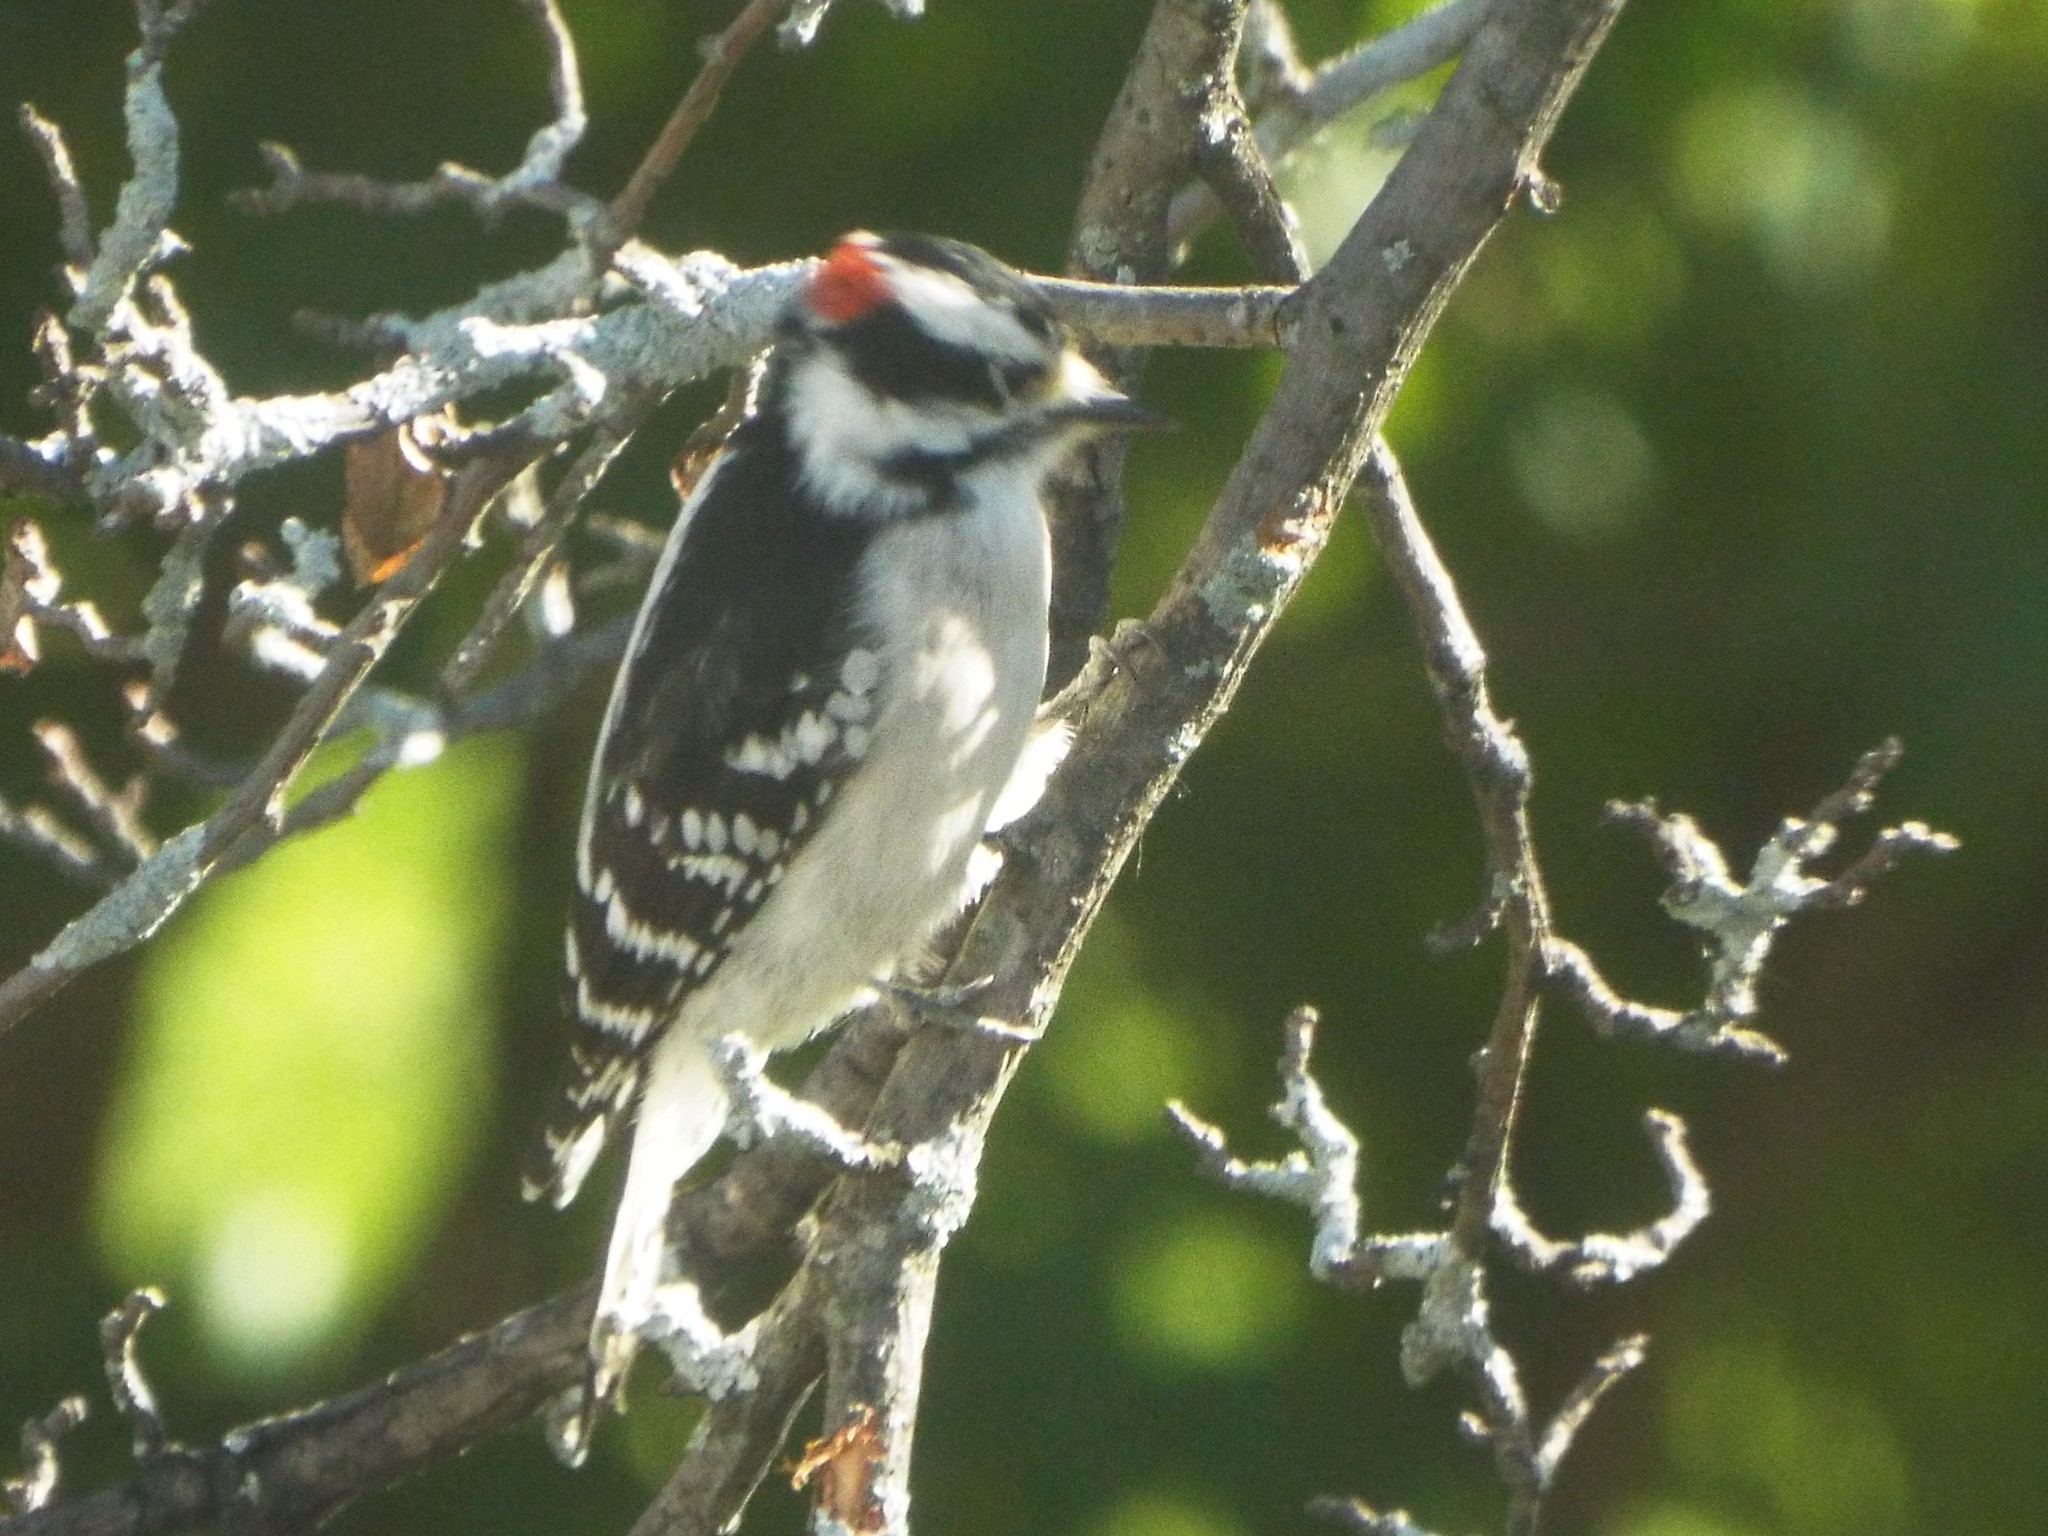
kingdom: Animalia
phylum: Chordata
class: Aves
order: Piciformes
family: Picidae
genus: Dryobates
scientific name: Dryobates pubescens
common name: Downy woodpecker
